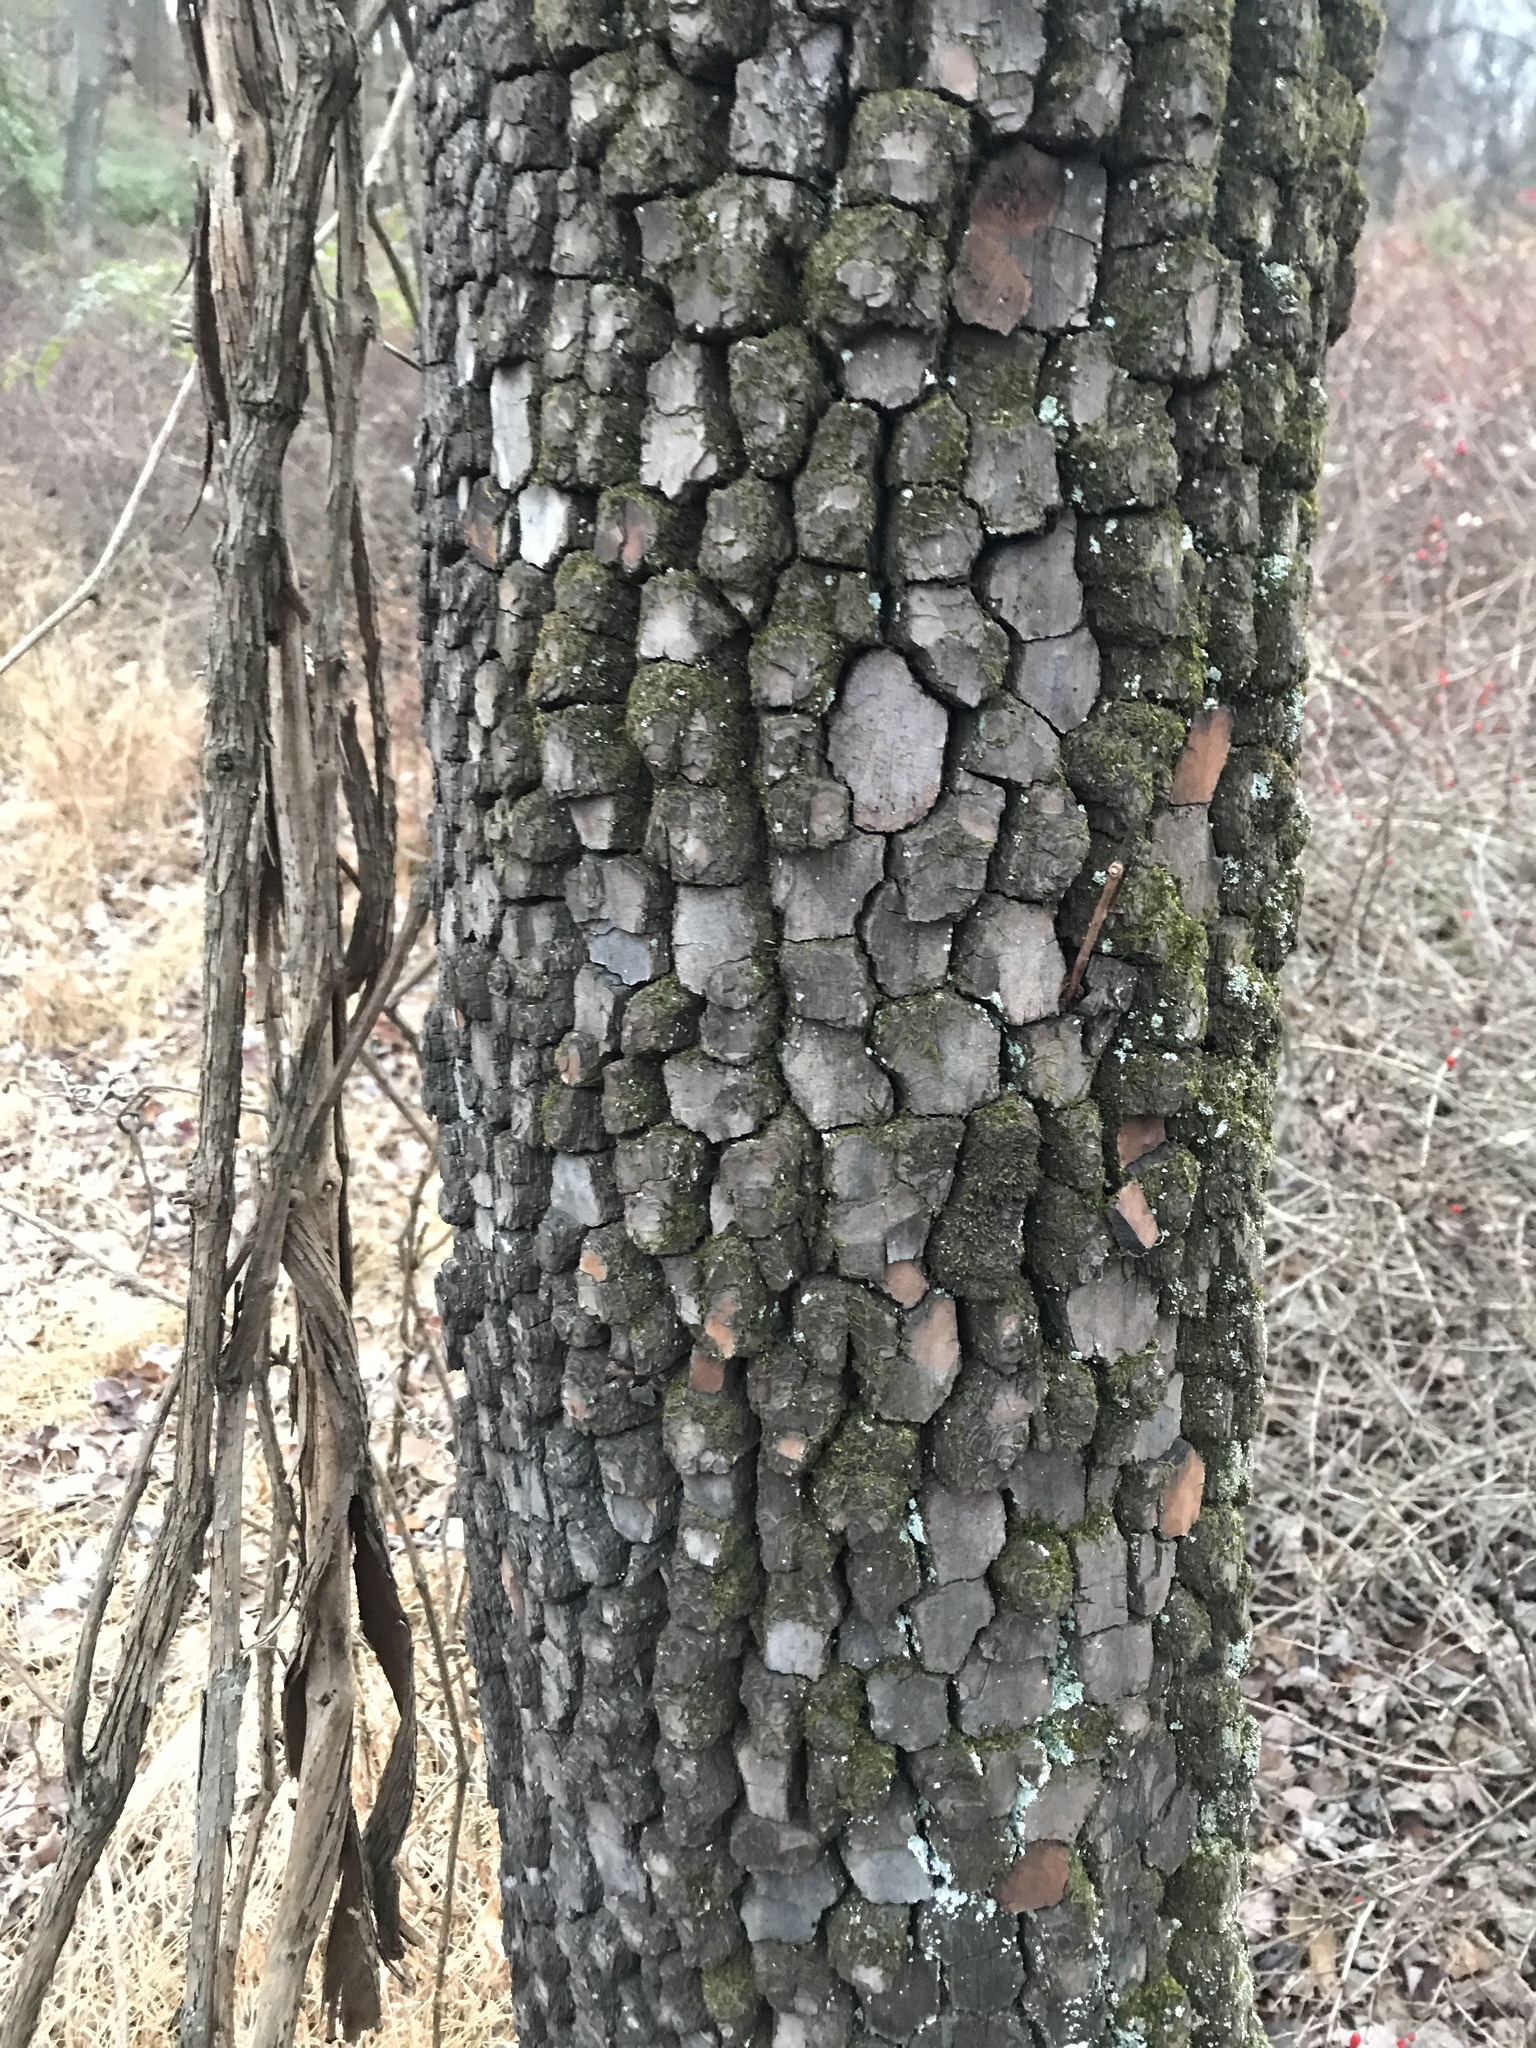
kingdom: Plantae
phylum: Tracheophyta
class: Magnoliopsida
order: Ericales
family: Ebenaceae
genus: Diospyros
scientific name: Diospyros virginiana
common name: Persimmon
